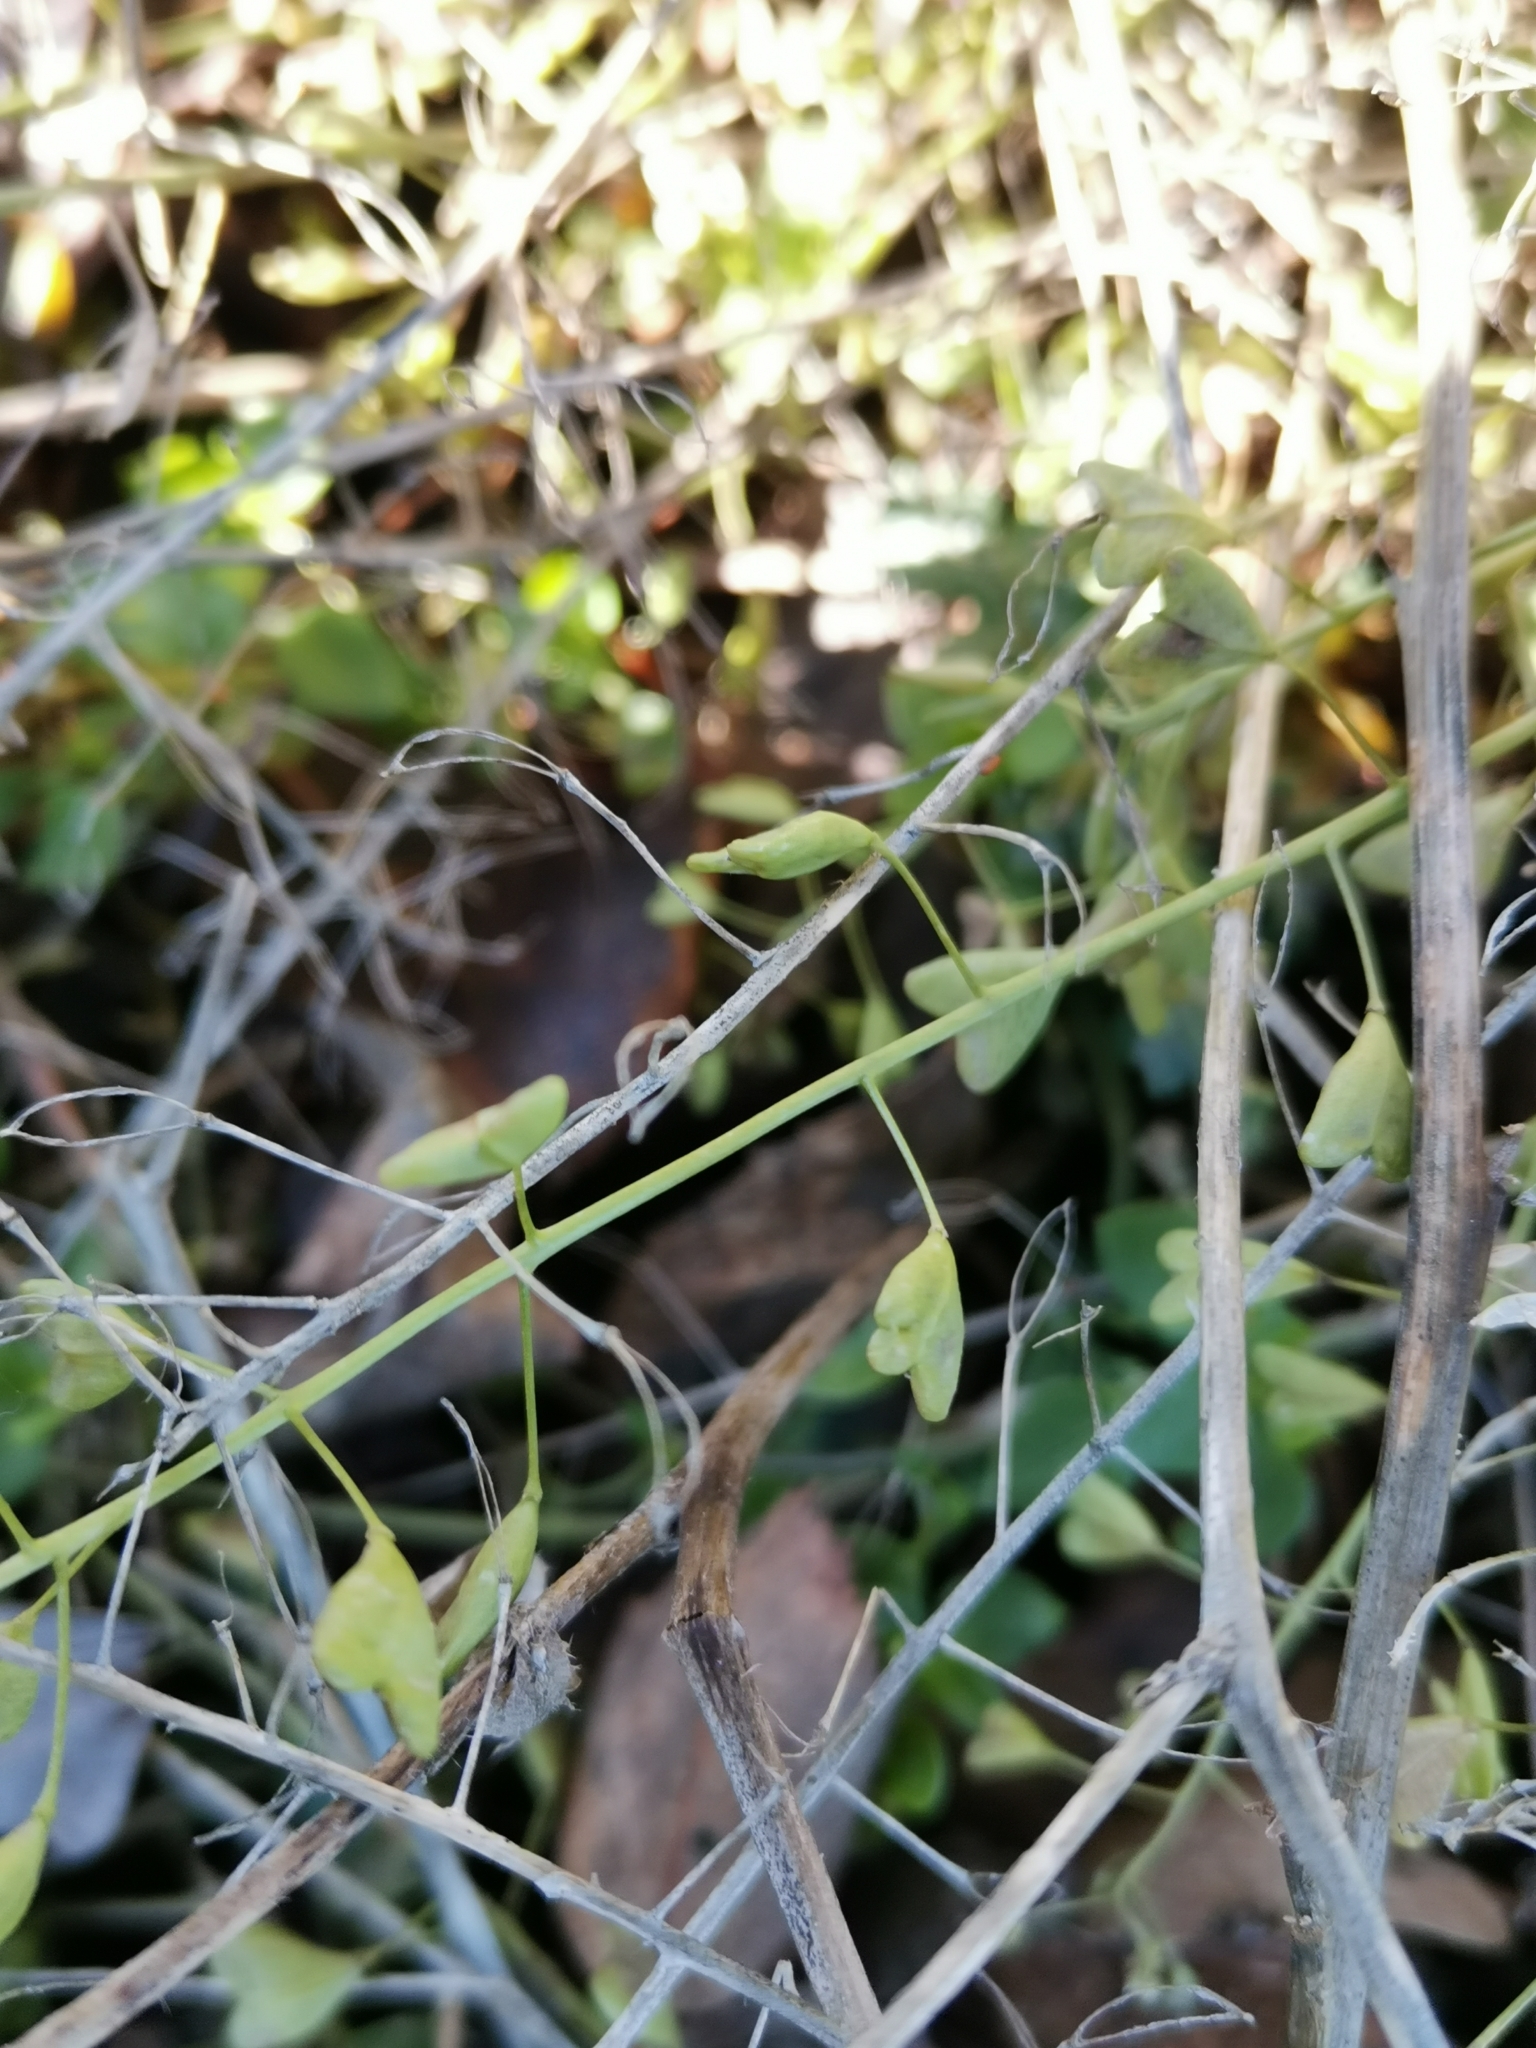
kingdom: Plantae
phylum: Tracheophyta
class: Magnoliopsida
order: Brassicales
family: Brassicaceae
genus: Capsella
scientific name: Capsella bursa-pastoris
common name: Shepherd's purse
